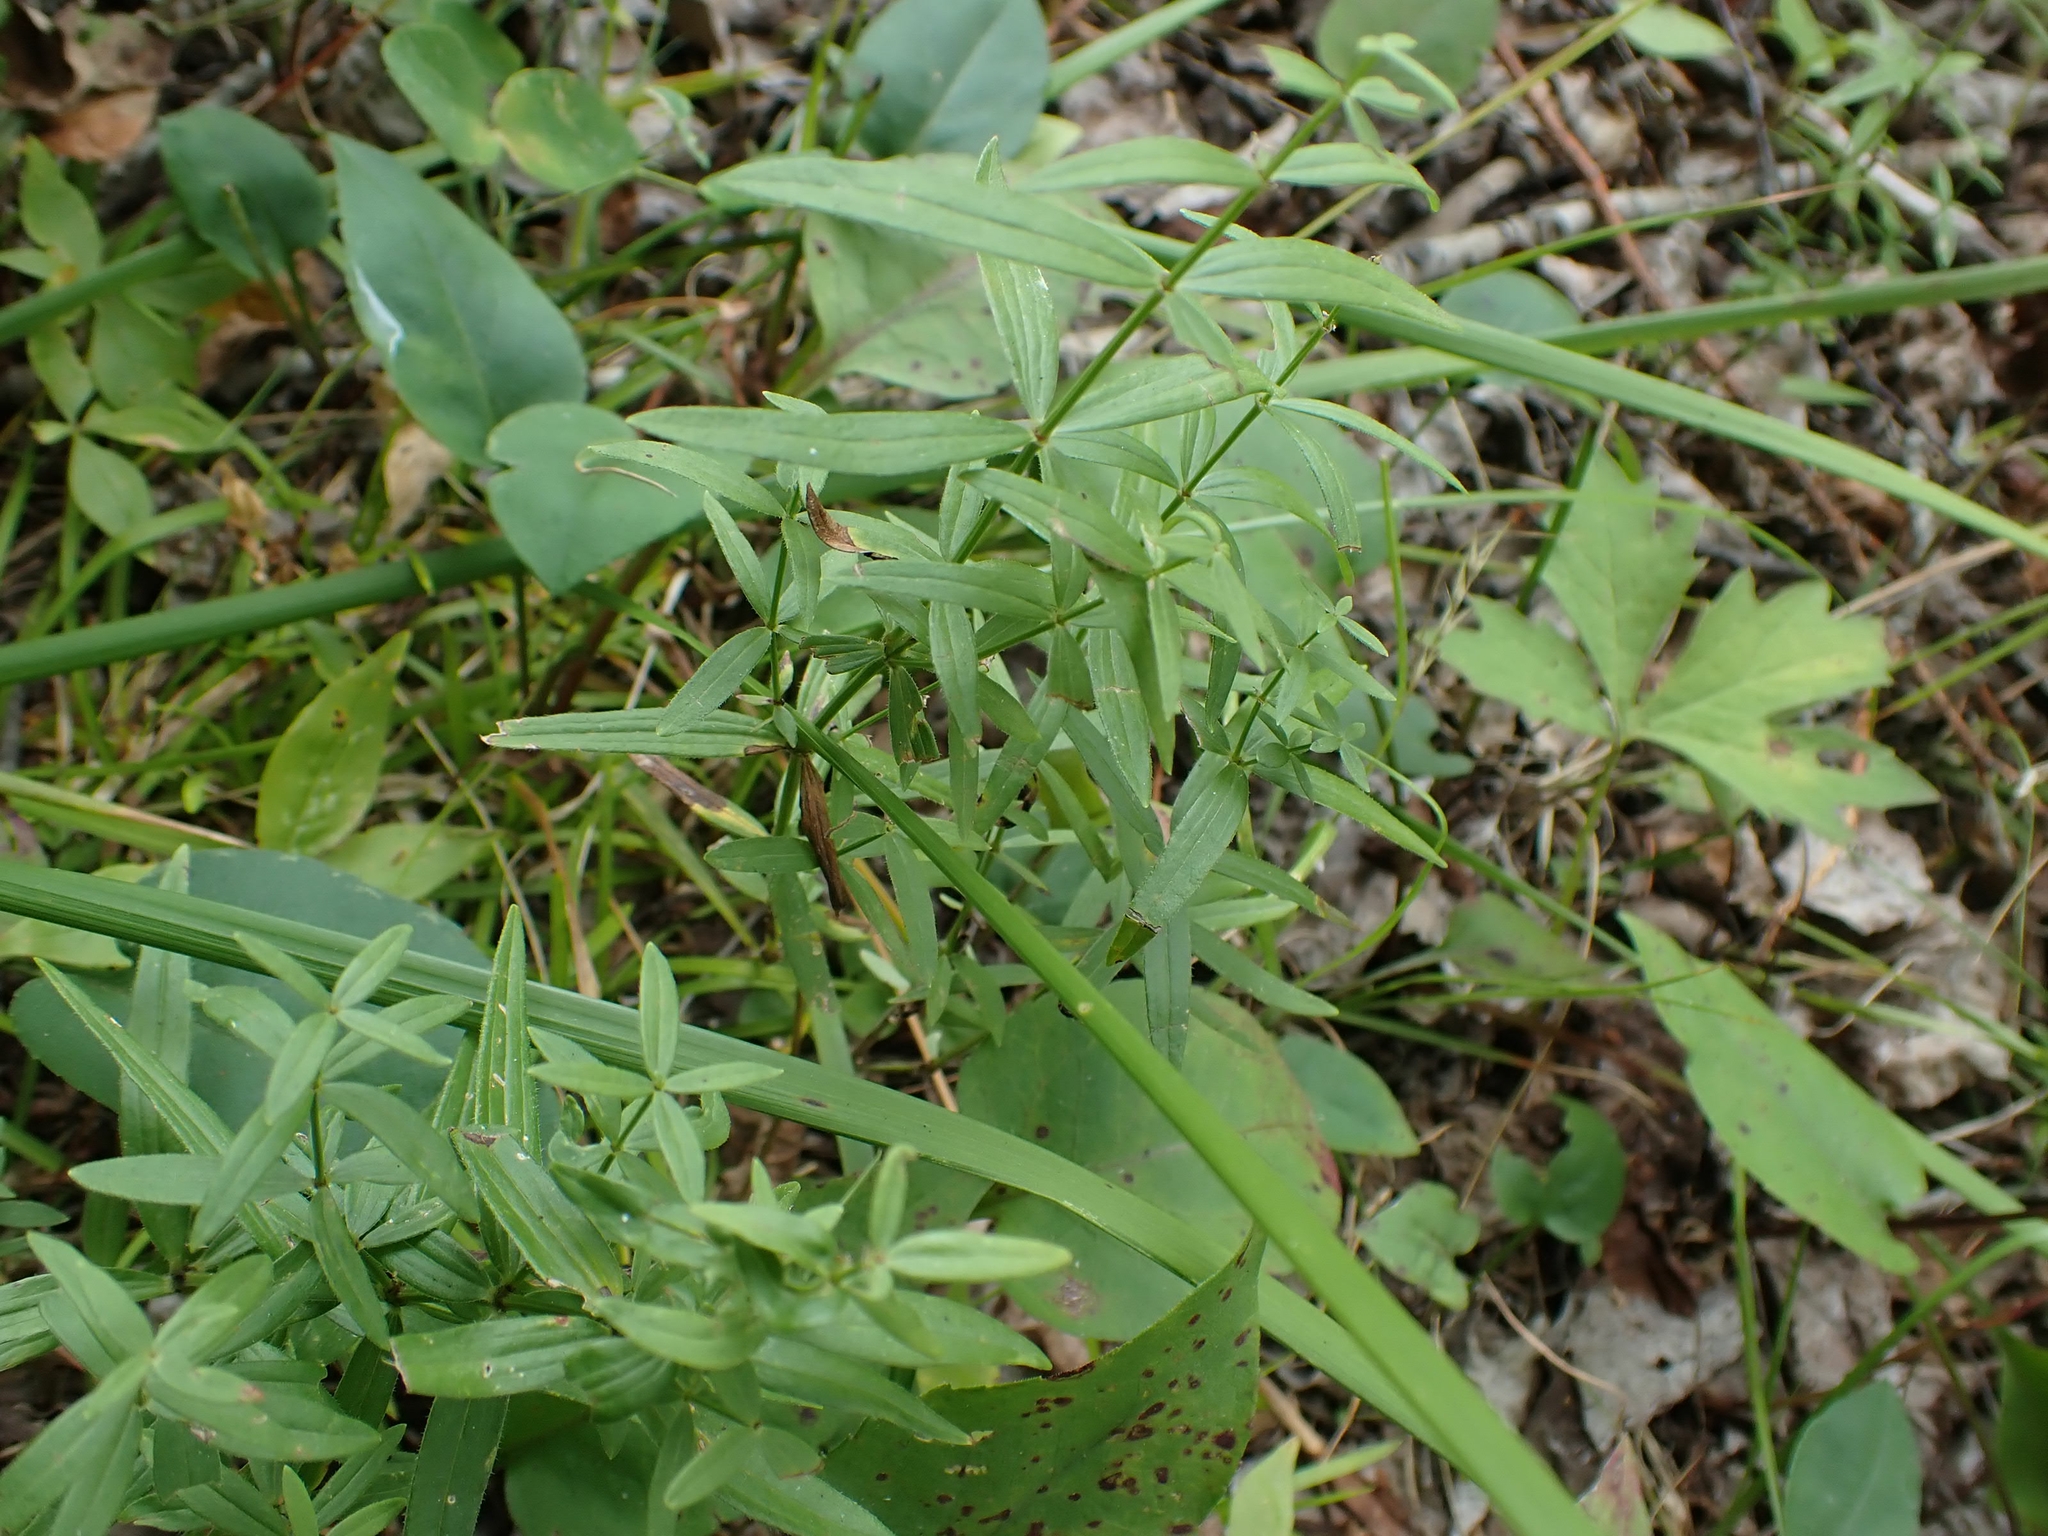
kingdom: Plantae
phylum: Tracheophyta
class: Magnoliopsida
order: Gentianales
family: Rubiaceae
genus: Galium
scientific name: Galium boreale
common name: Northern bedstraw
